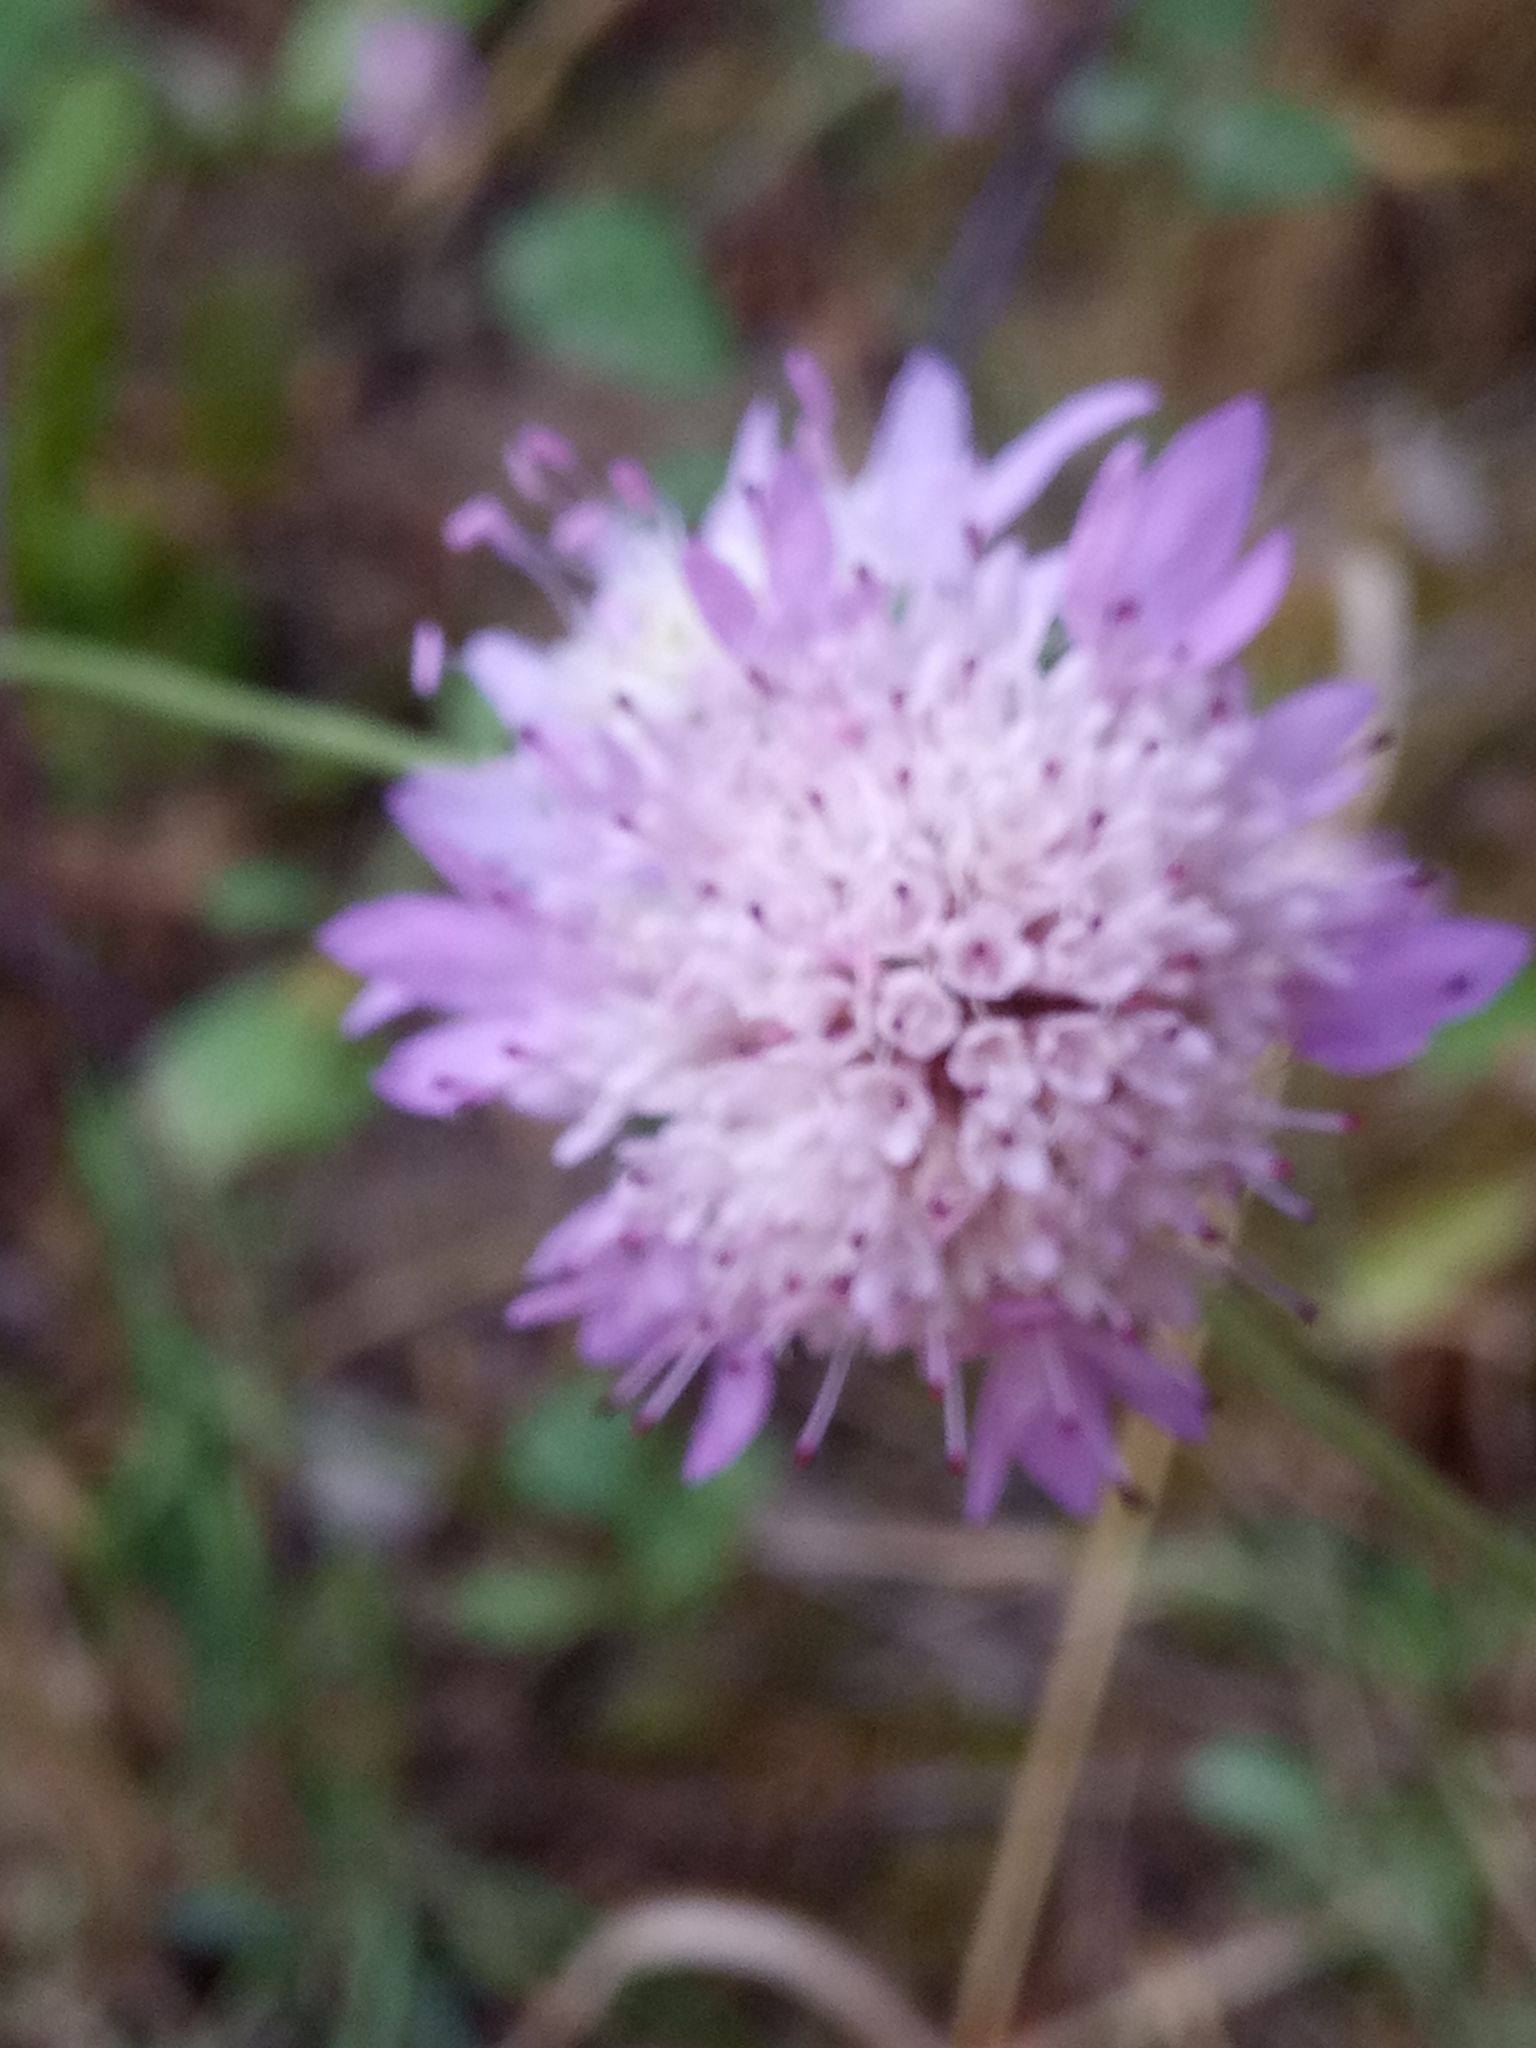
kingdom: Plantae
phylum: Tracheophyta
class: Magnoliopsida
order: Dipsacales
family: Caprifoliaceae
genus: Sixalix
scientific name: Sixalix maritima
